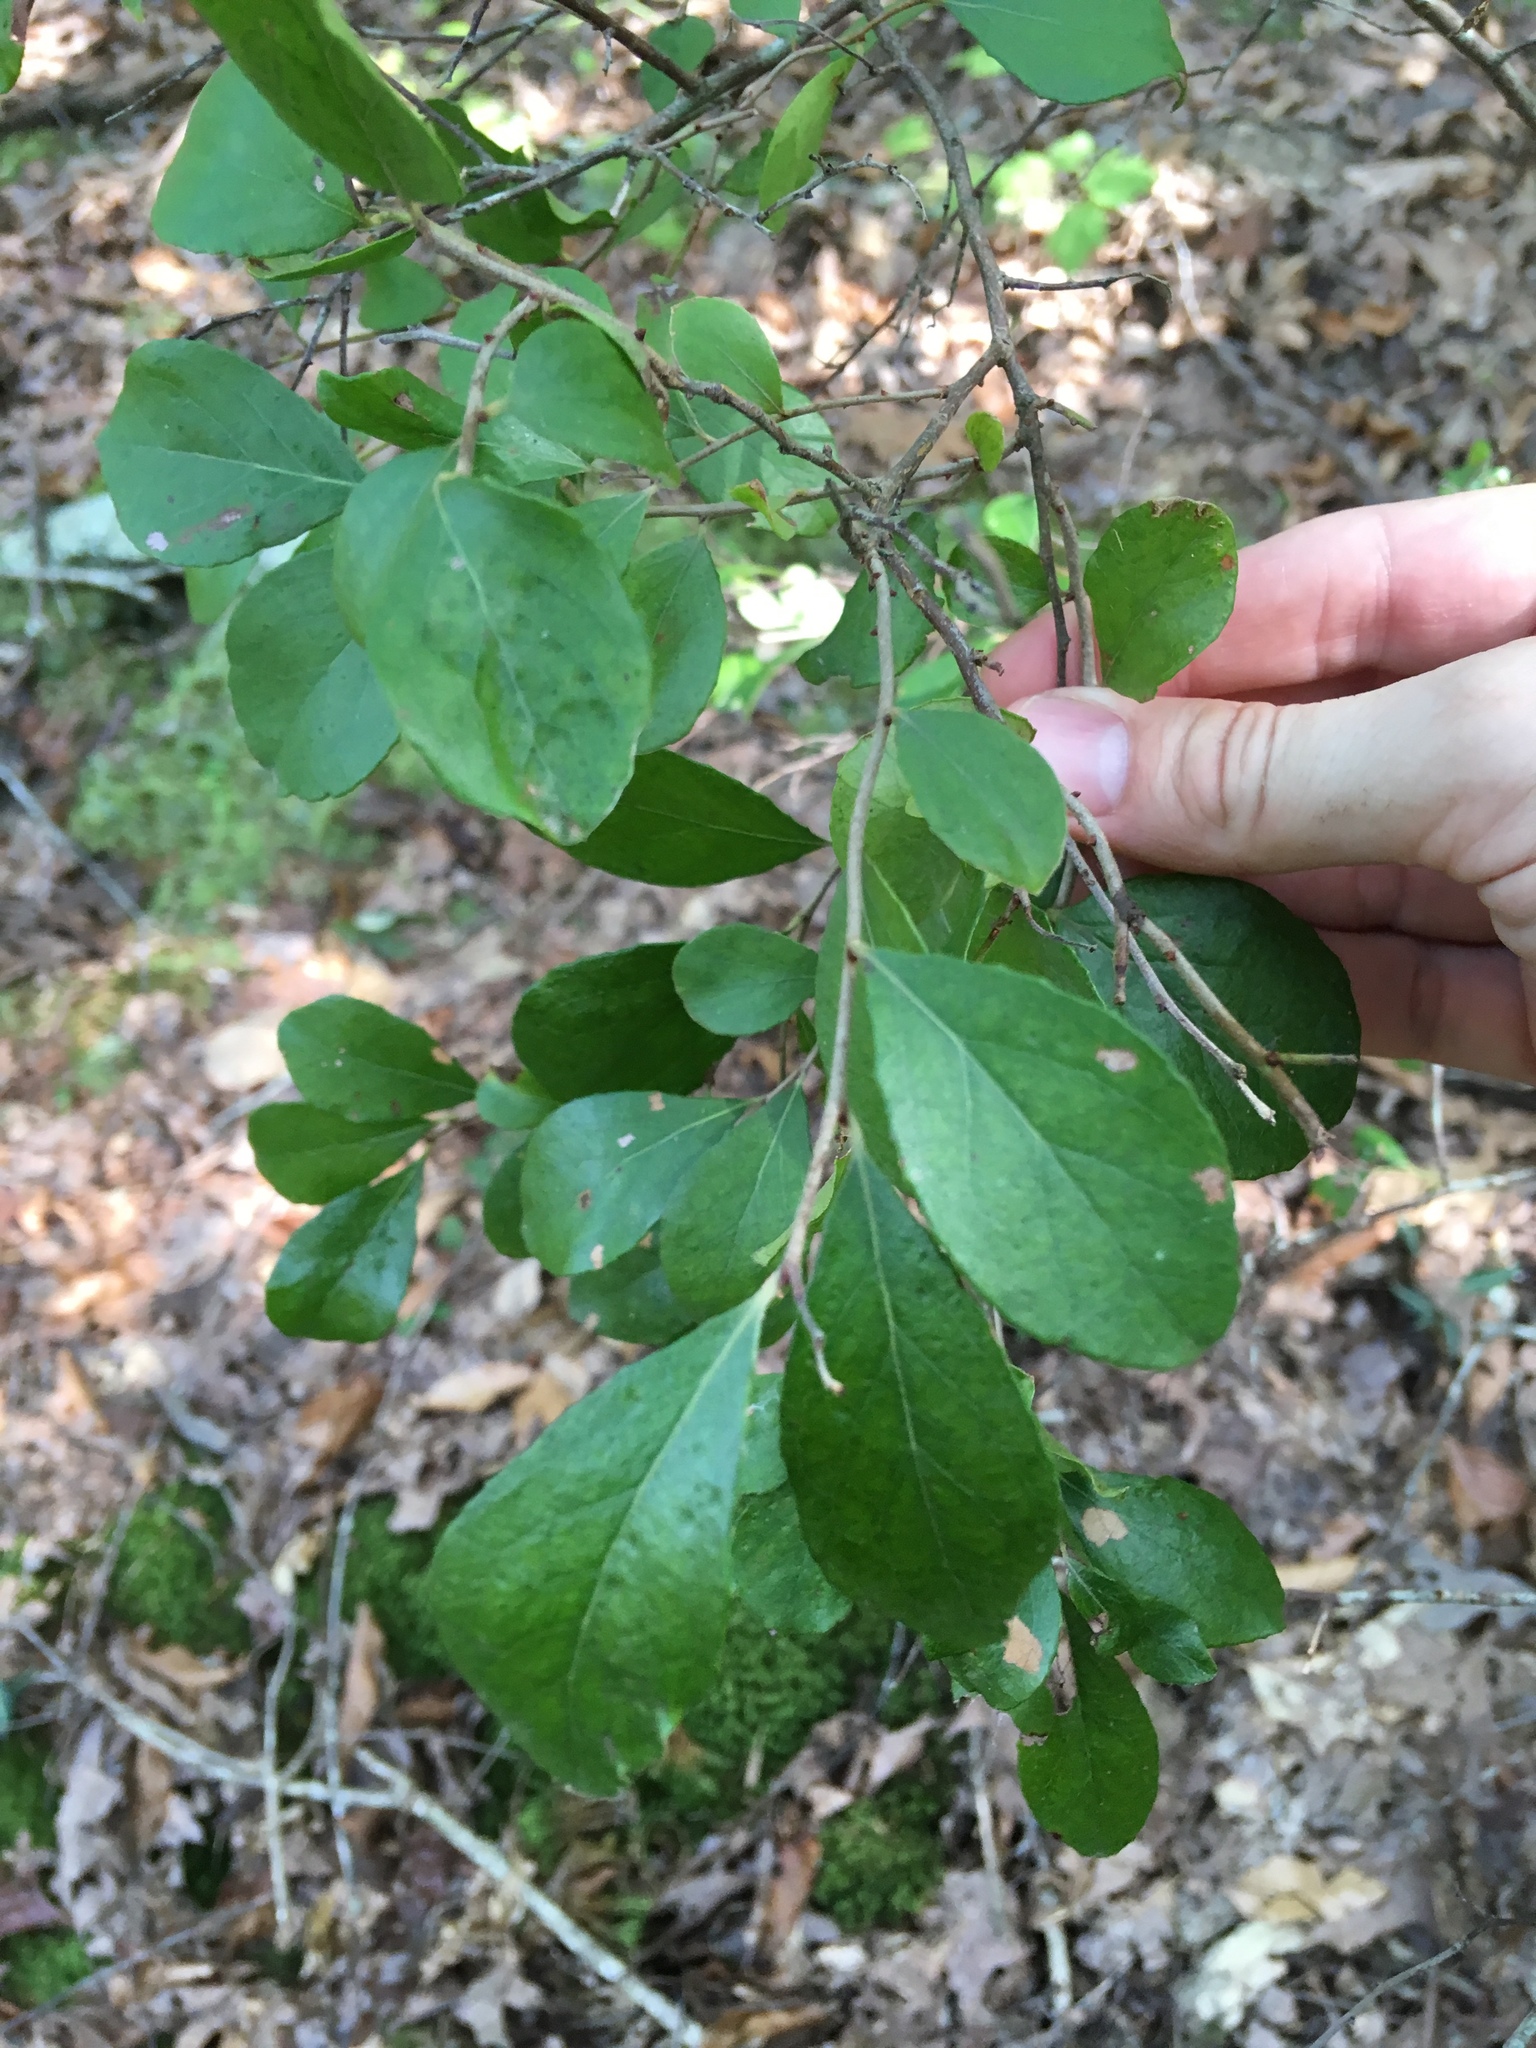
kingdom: Plantae
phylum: Tracheophyta
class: Magnoliopsida
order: Ericales
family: Ericaceae
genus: Vaccinium
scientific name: Vaccinium arboreum
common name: Farkleberry
